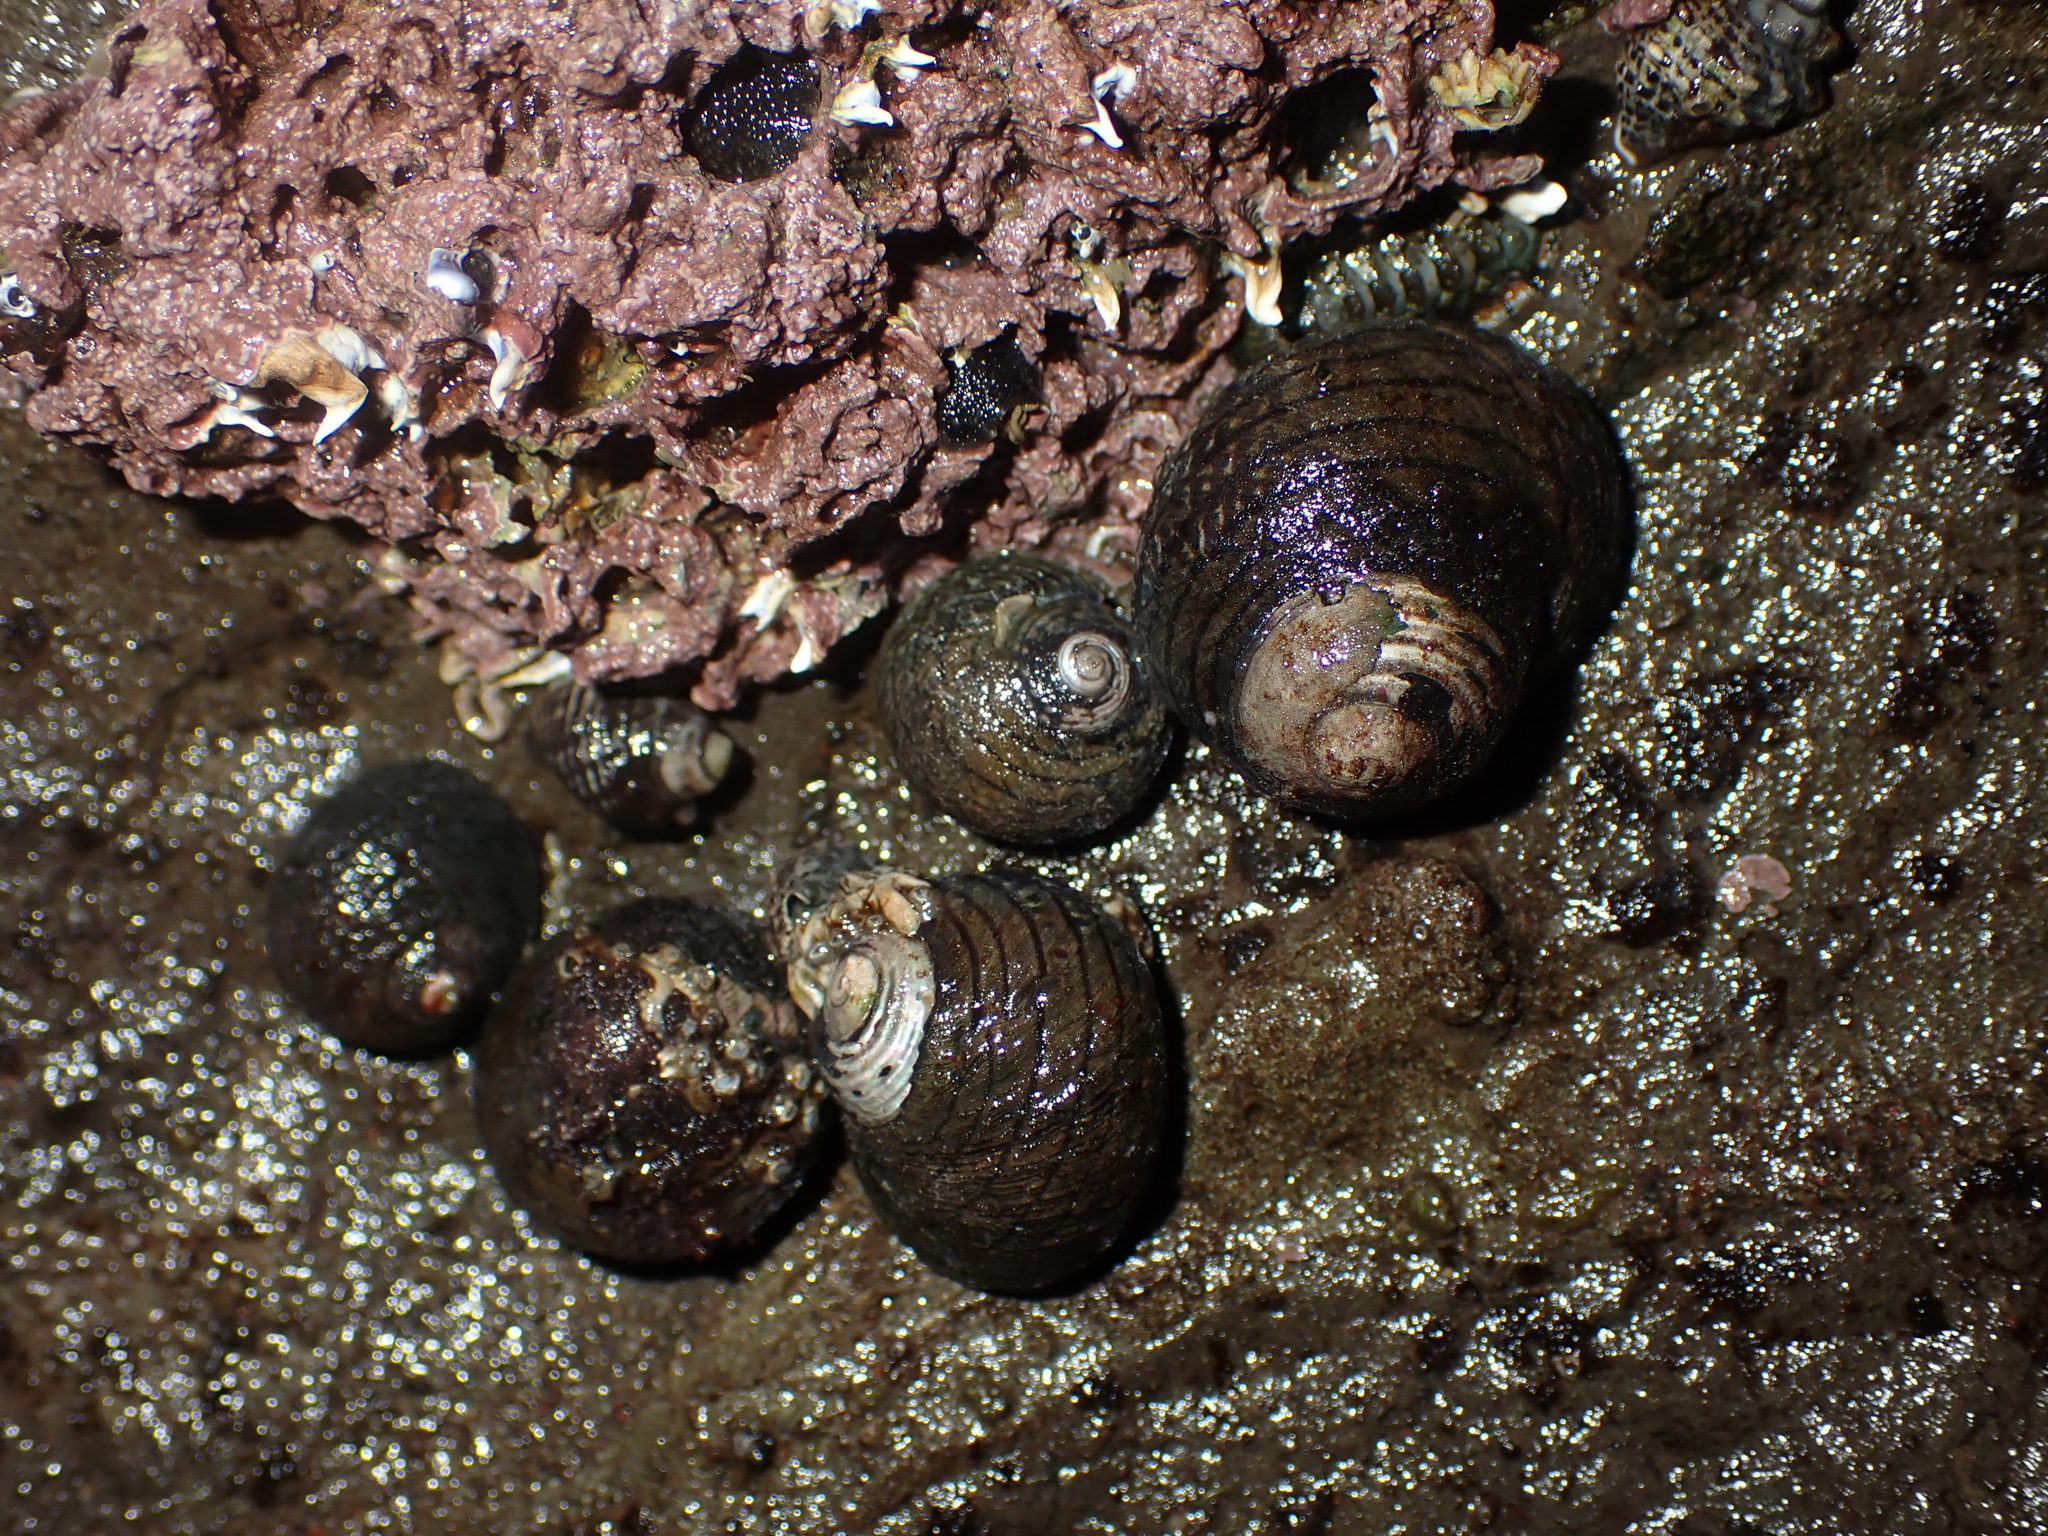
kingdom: Animalia
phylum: Mollusca
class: Gastropoda
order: Trochida
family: Trochidae
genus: Diloma
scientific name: Diloma aethiops
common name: Scorched monodont
